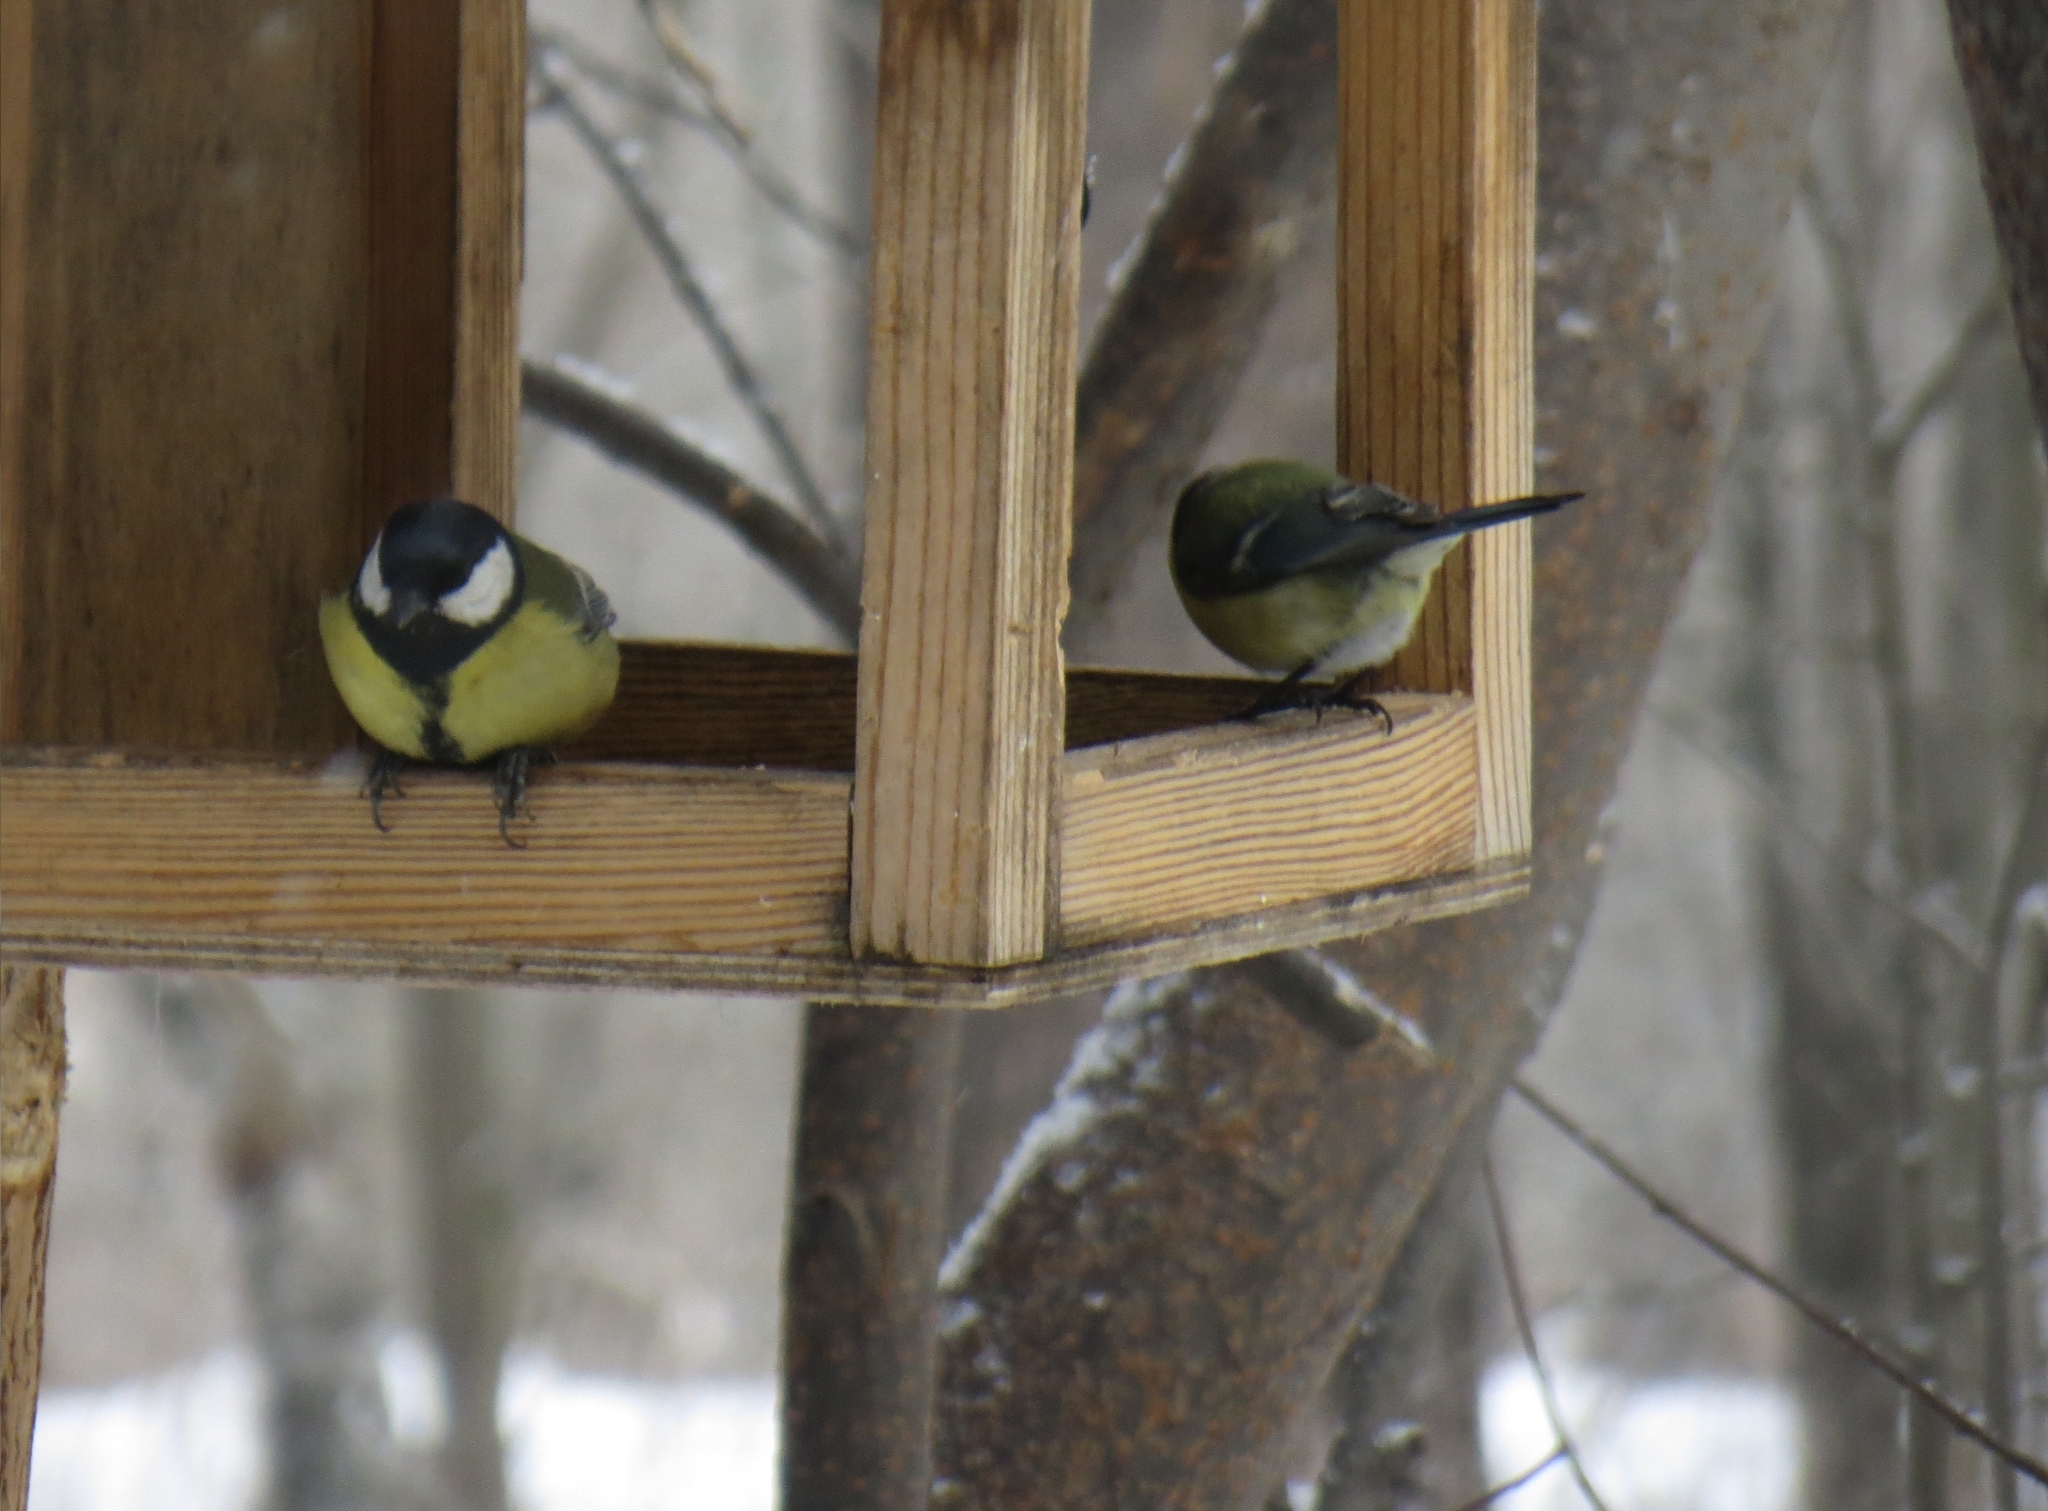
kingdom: Animalia
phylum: Chordata
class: Aves
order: Passeriformes
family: Paridae
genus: Parus
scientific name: Parus major
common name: Great tit
